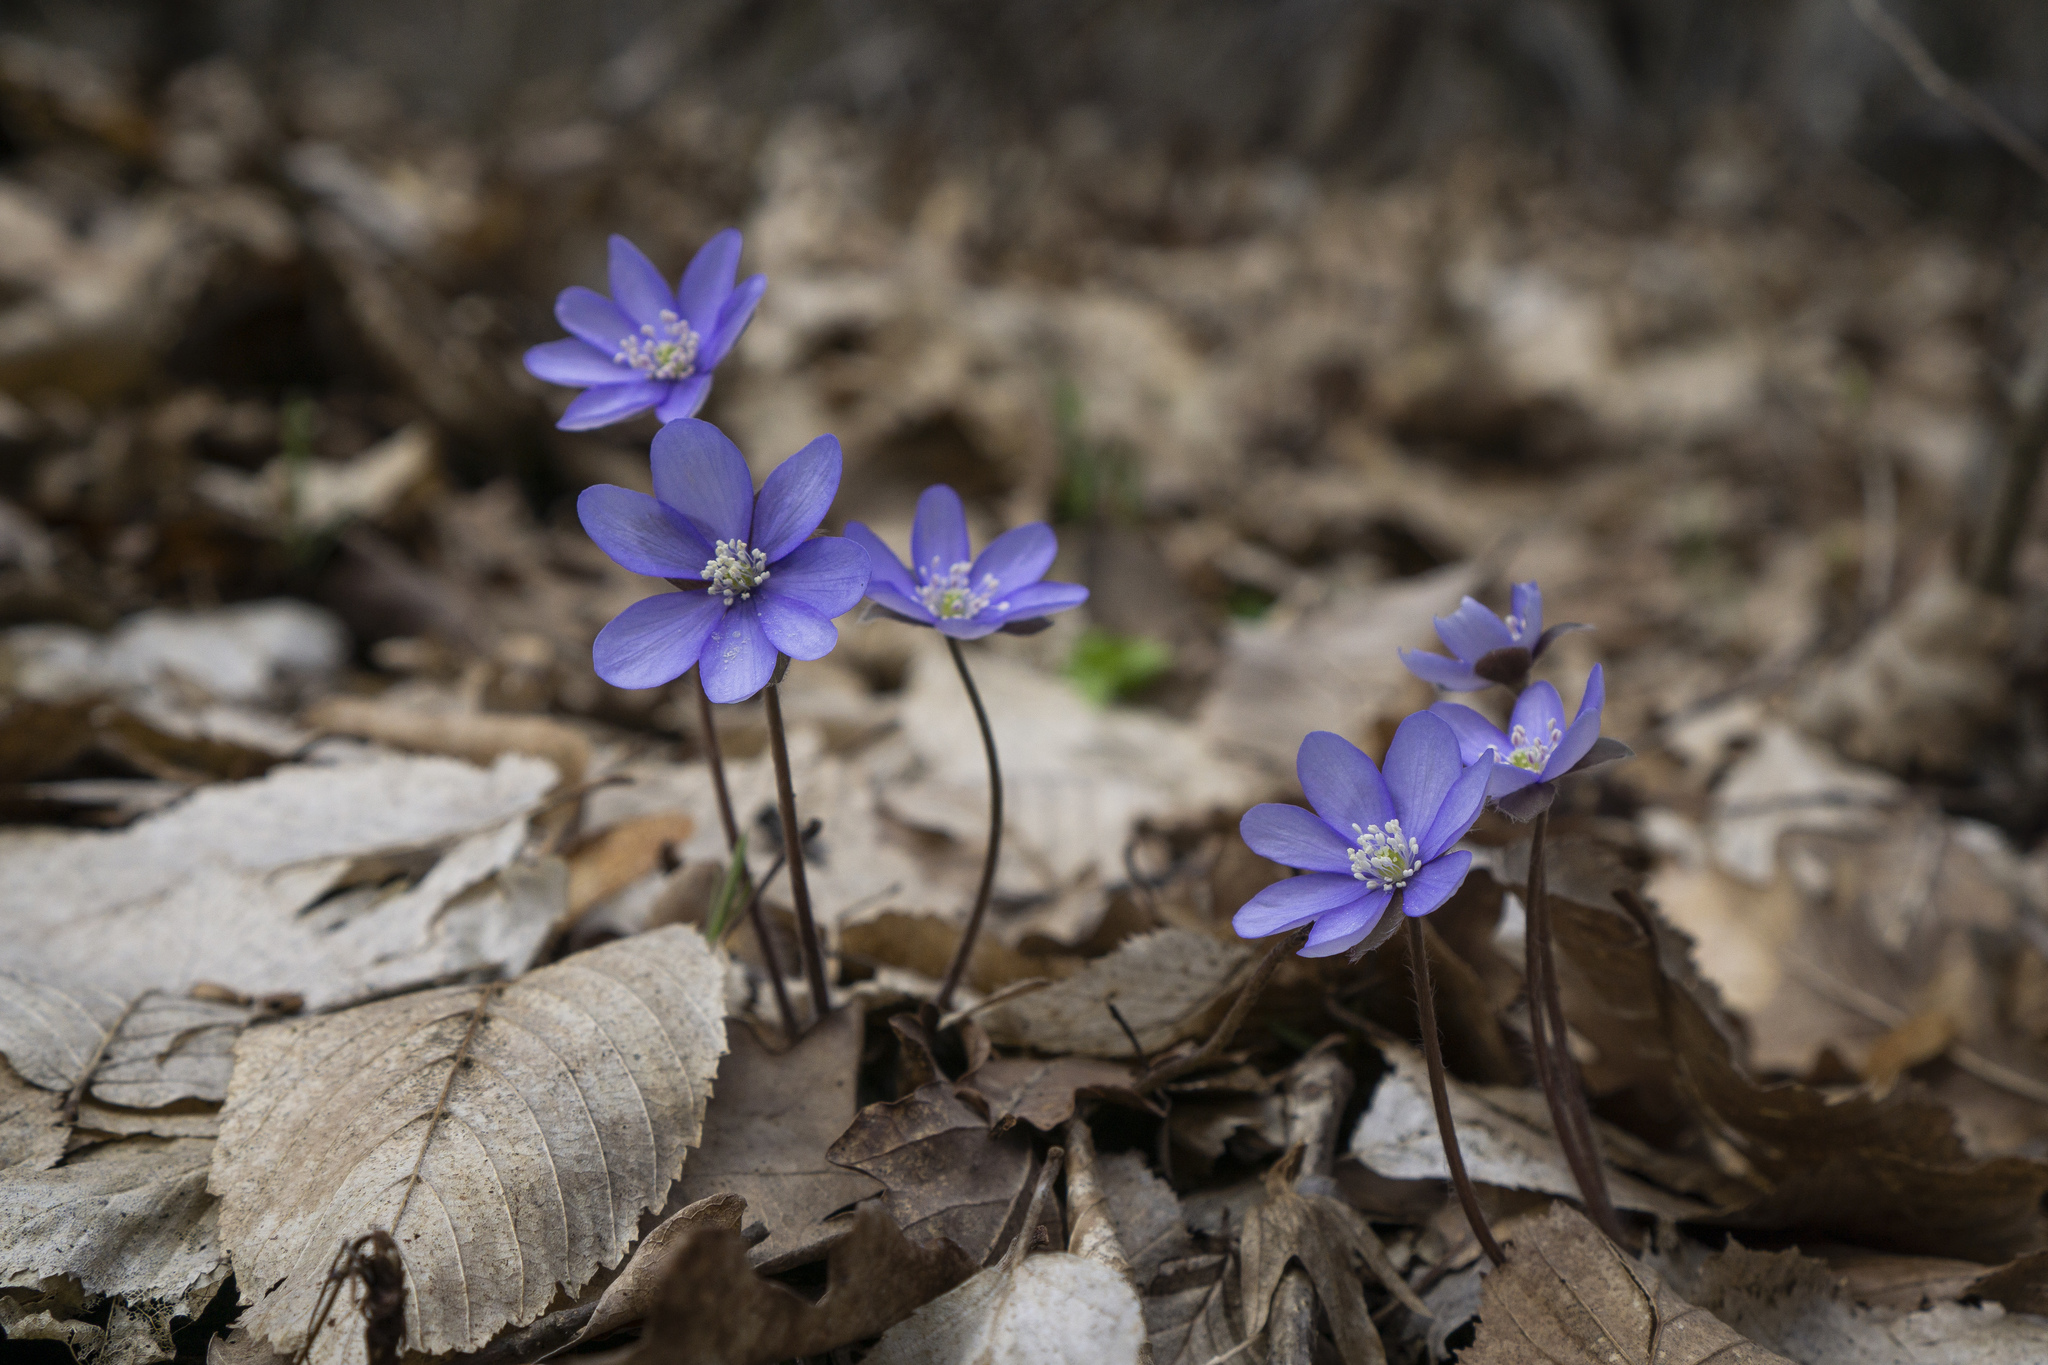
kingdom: Plantae
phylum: Tracheophyta
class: Magnoliopsida
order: Ranunculales
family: Ranunculaceae
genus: Hepatica
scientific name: Hepatica nobilis
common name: Liverleaf
